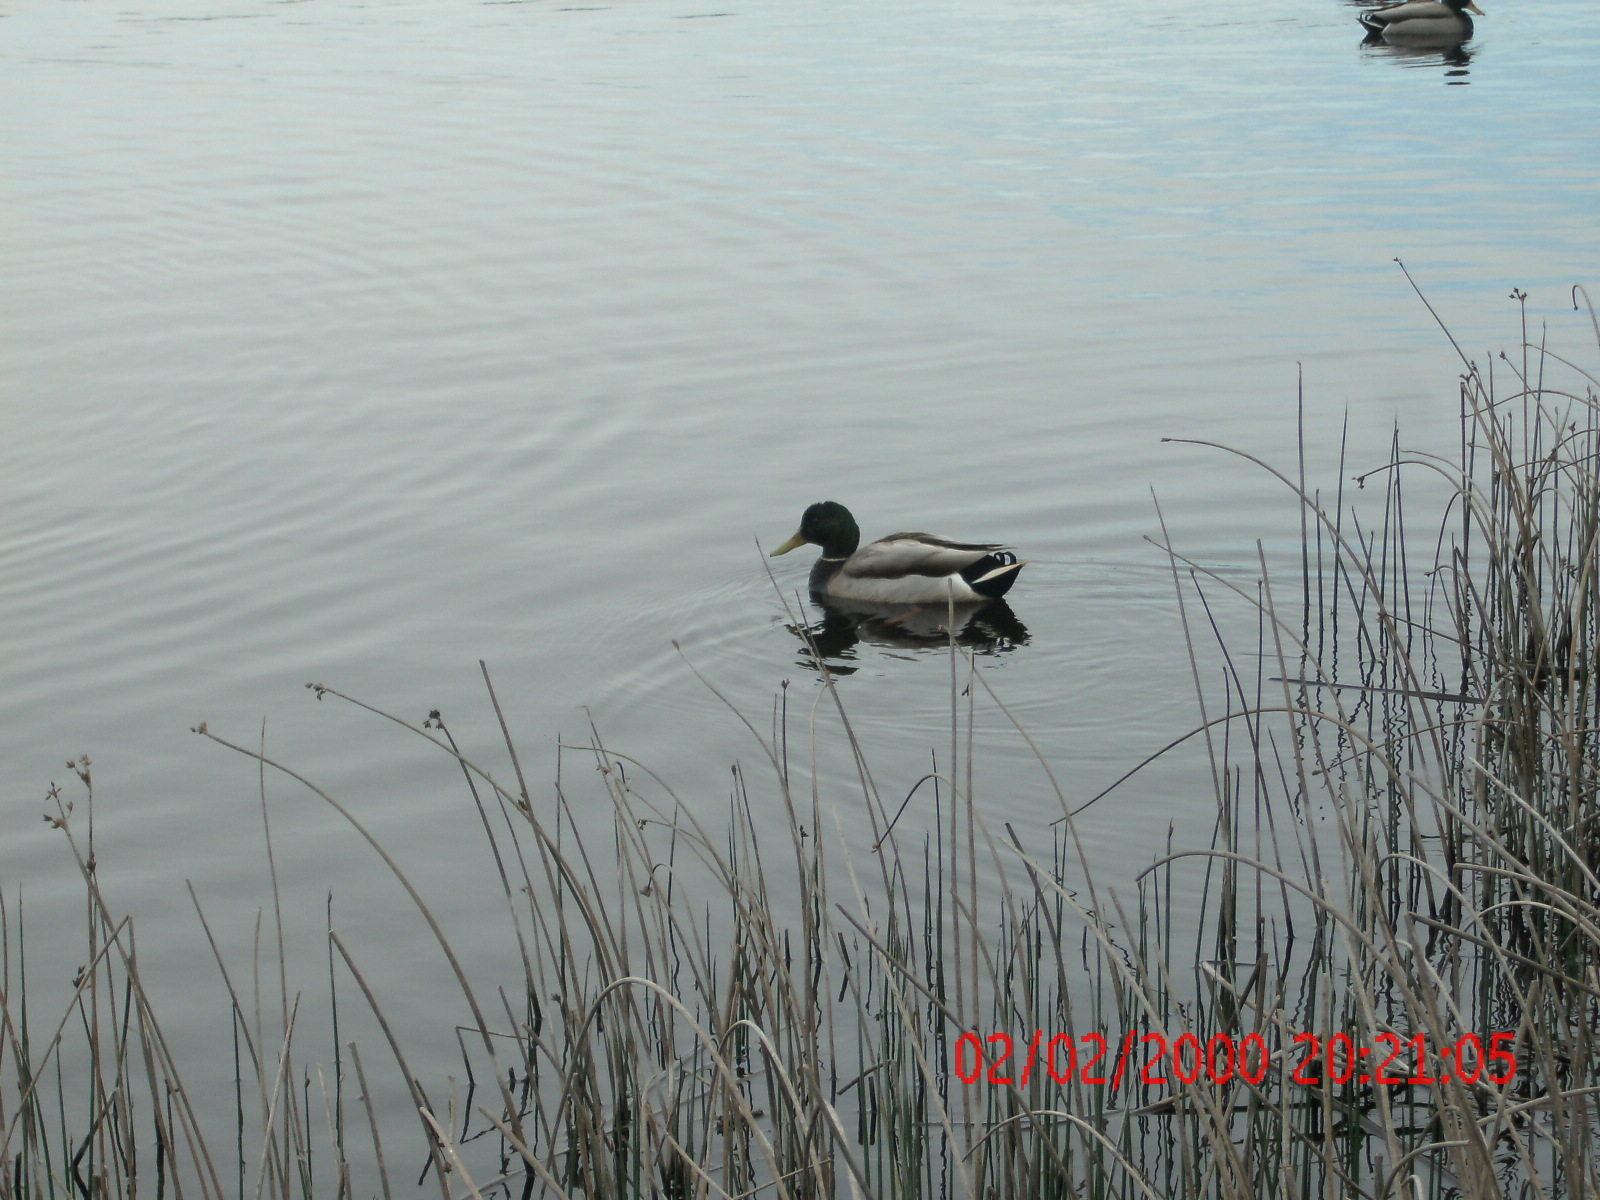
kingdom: Animalia
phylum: Chordata
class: Aves
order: Anseriformes
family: Anatidae
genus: Anas
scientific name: Anas platyrhynchos
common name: Mallard
